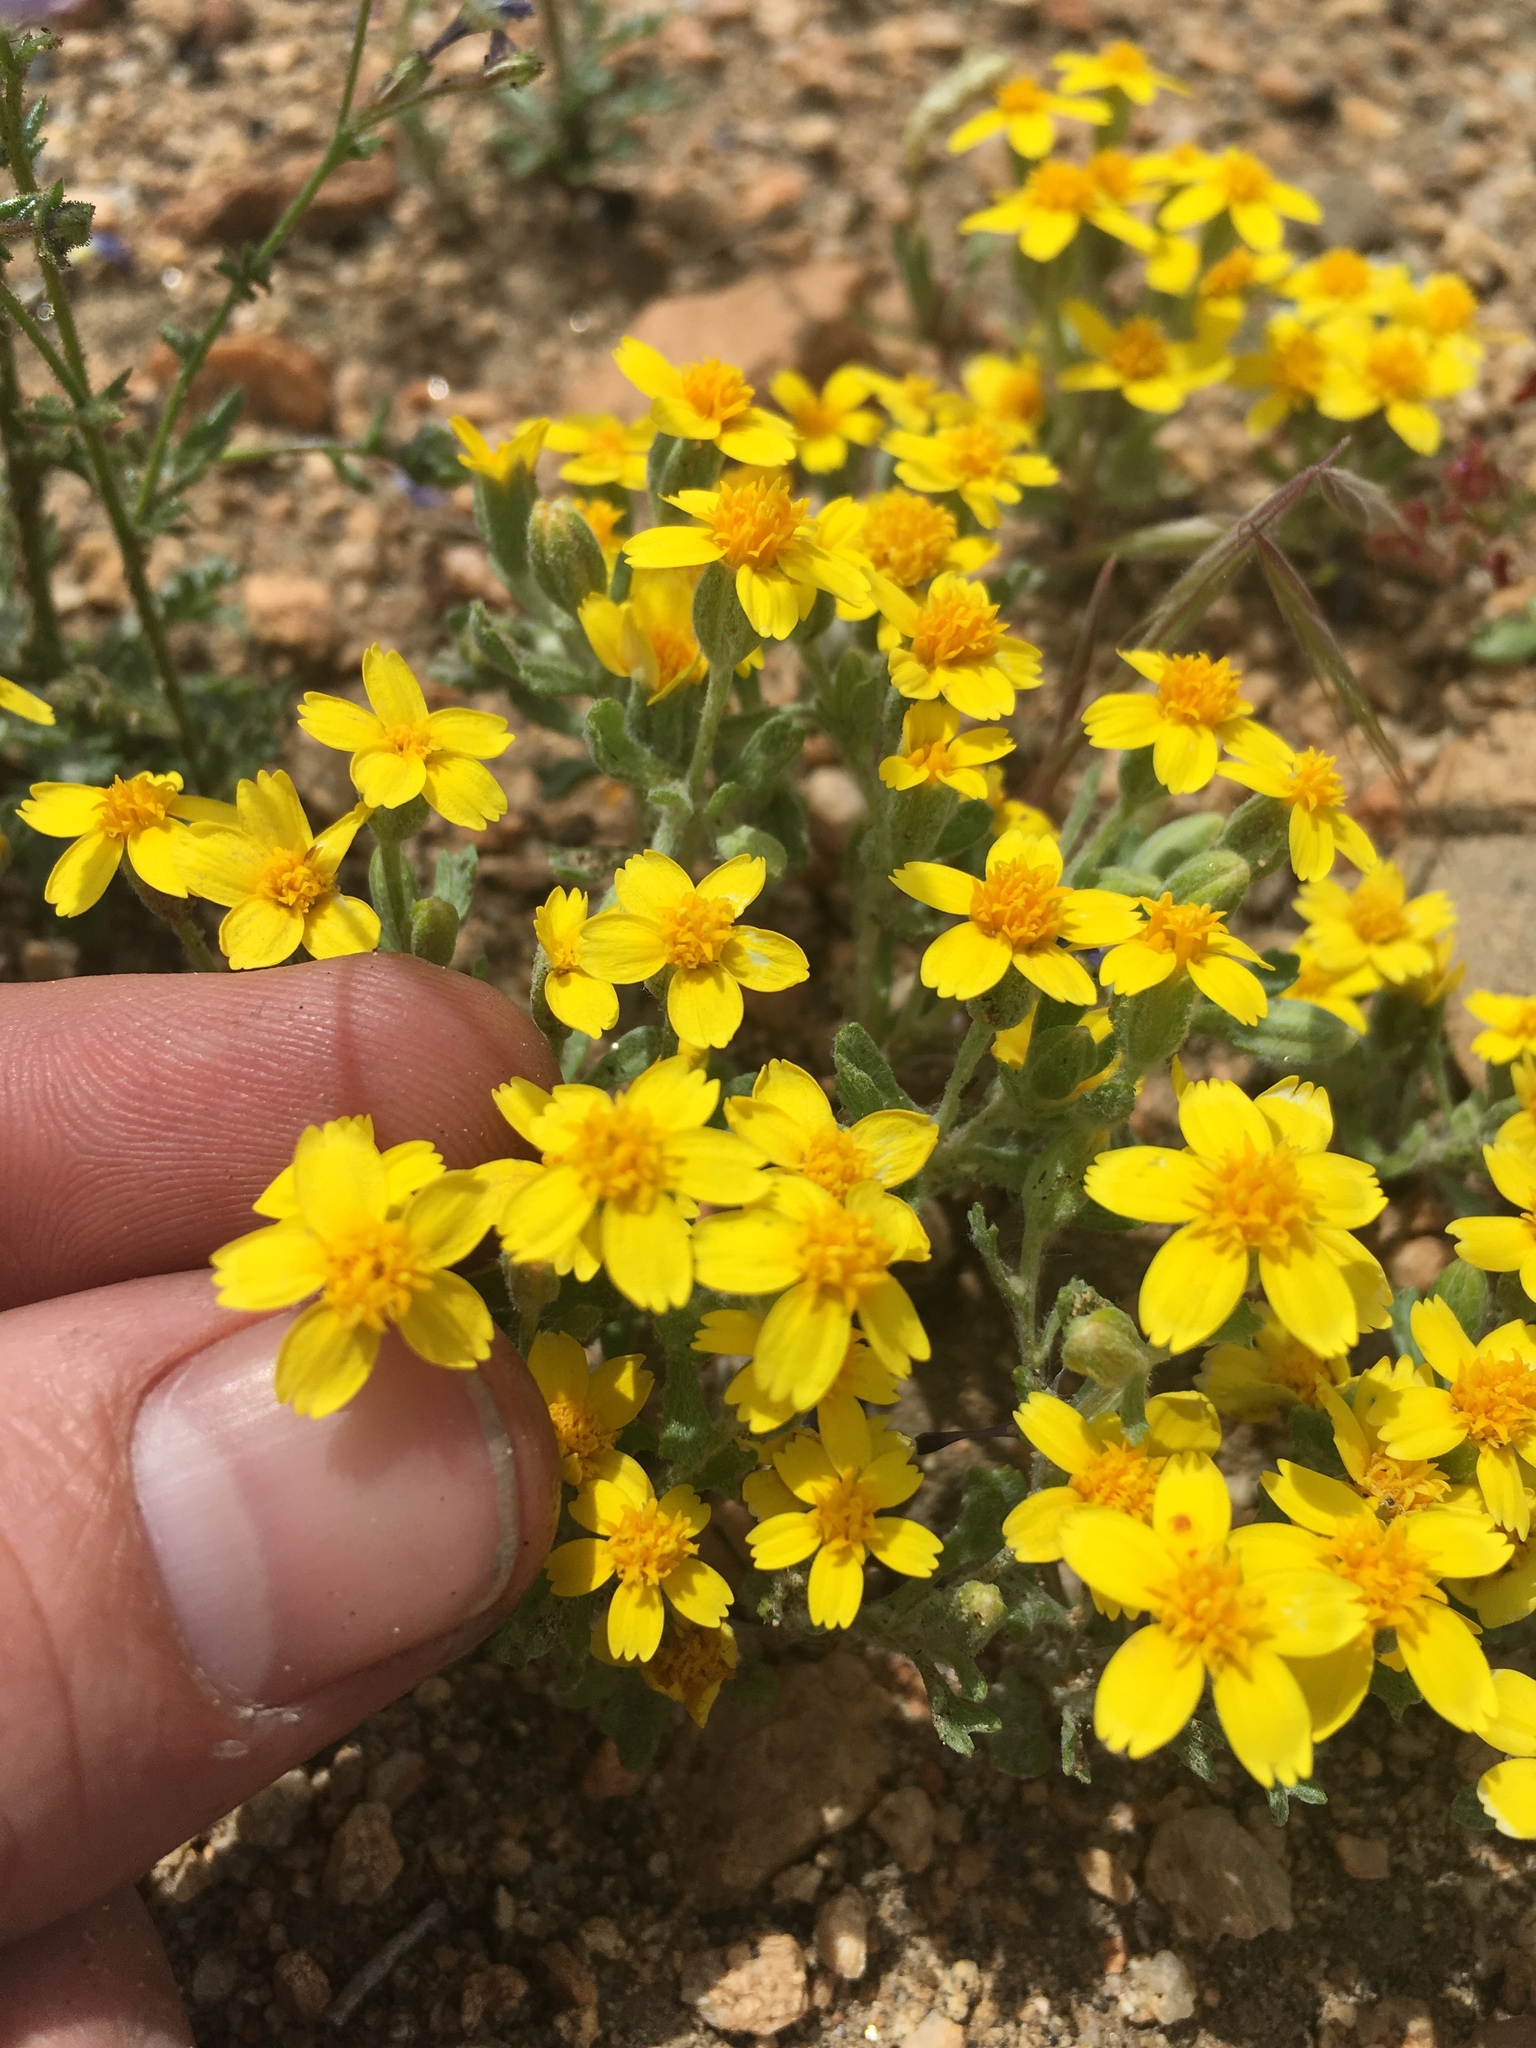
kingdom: Plantae
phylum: Tracheophyta
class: Magnoliopsida
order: Asterales
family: Asteraceae
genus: Syntrichopappus
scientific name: Syntrichopappus fremontii
